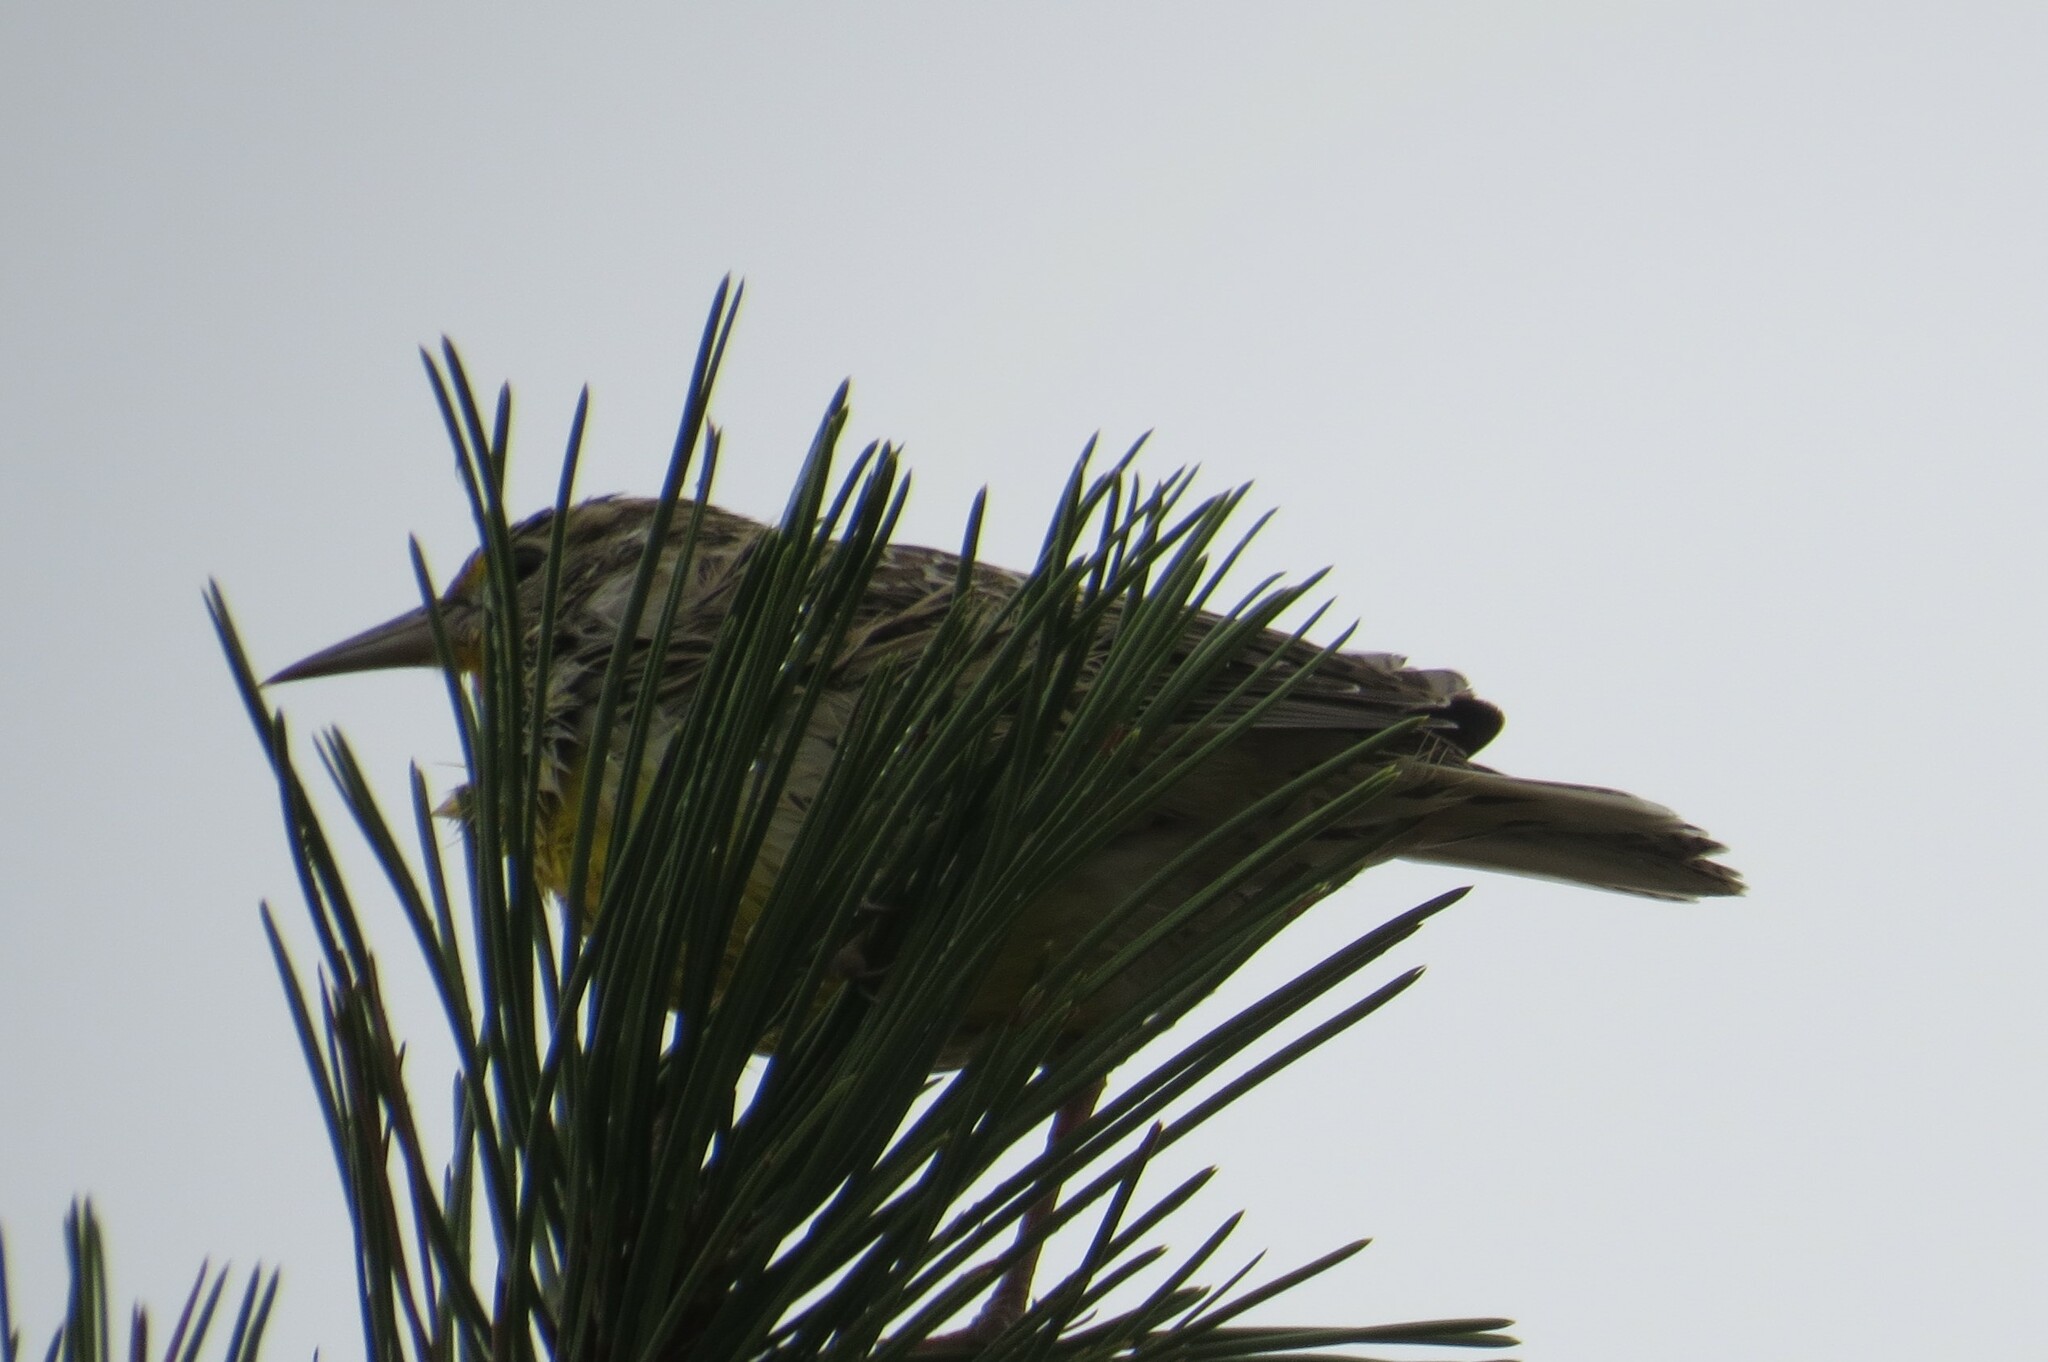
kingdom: Animalia
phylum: Chordata
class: Aves
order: Passeriformes
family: Icteridae
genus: Sturnella
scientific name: Sturnella neglecta
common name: Western meadowlark
